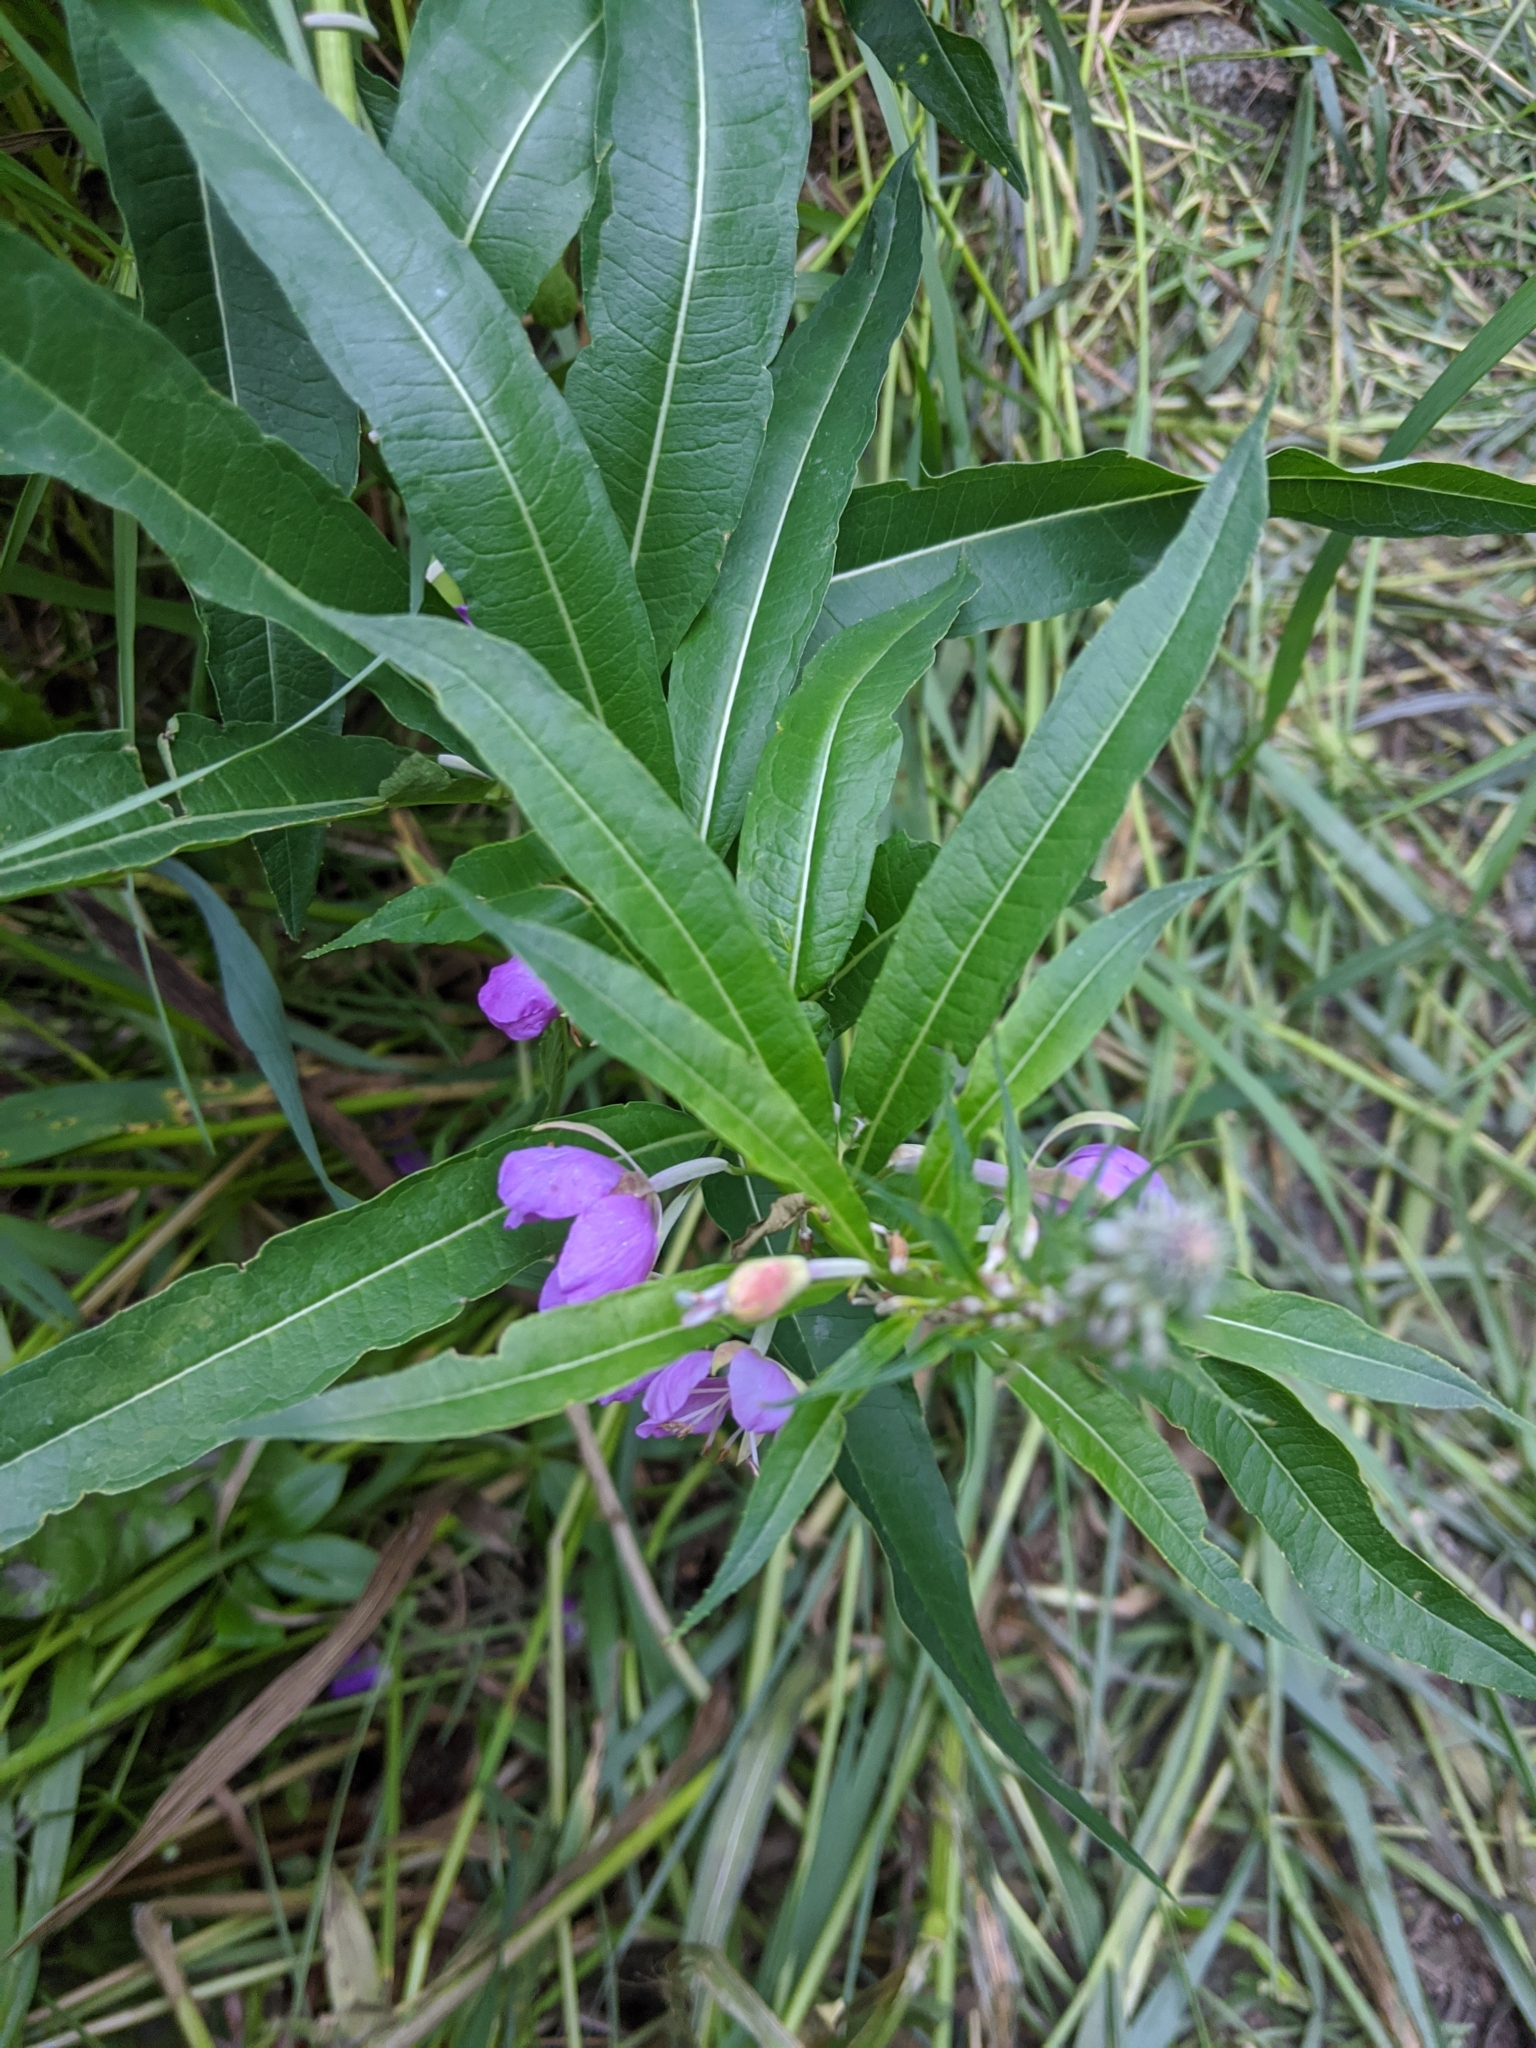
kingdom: Plantae
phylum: Tracheophyta
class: Magnoliopsida
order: Myrtales
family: Onagraceae
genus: Chamaenerion
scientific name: Chamaenerion angustifolium
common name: Fireweed
